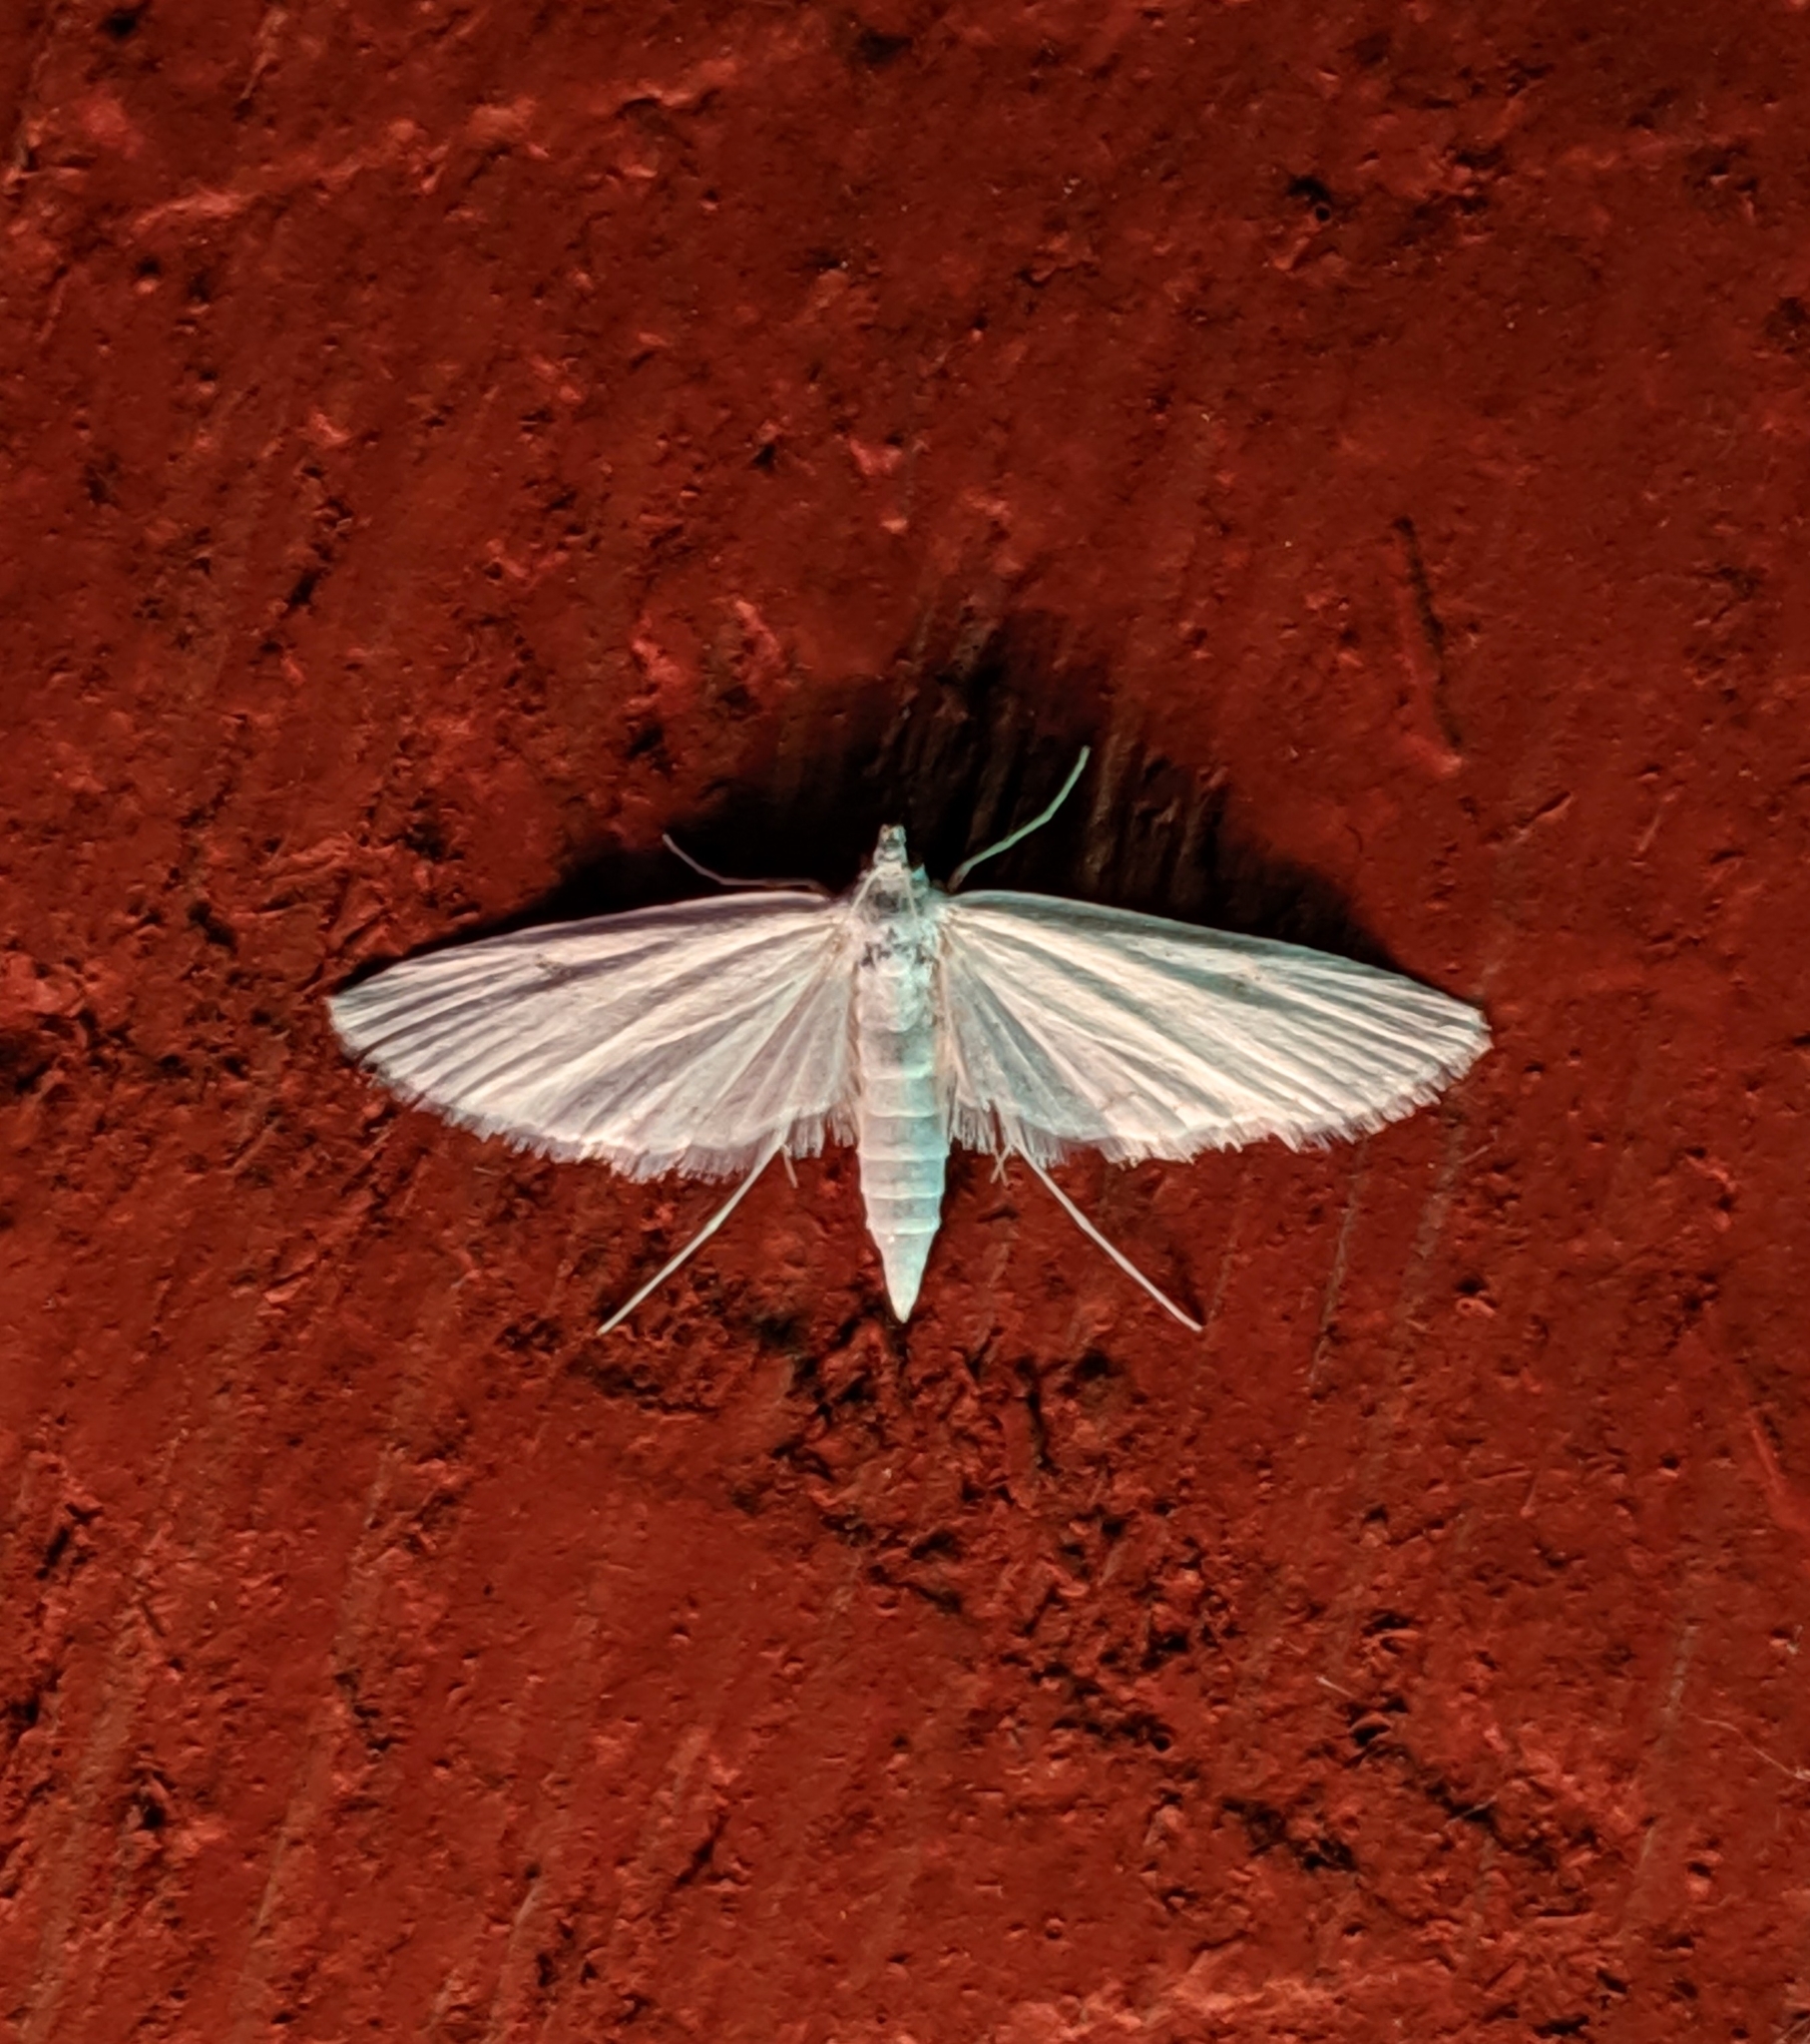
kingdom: Animalia
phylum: Arthropoda
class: Insecta
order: Lepidoptera
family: Crambidae
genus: Parapoynx
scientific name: Parapoynx allionealis
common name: Bladderwort casemaker
